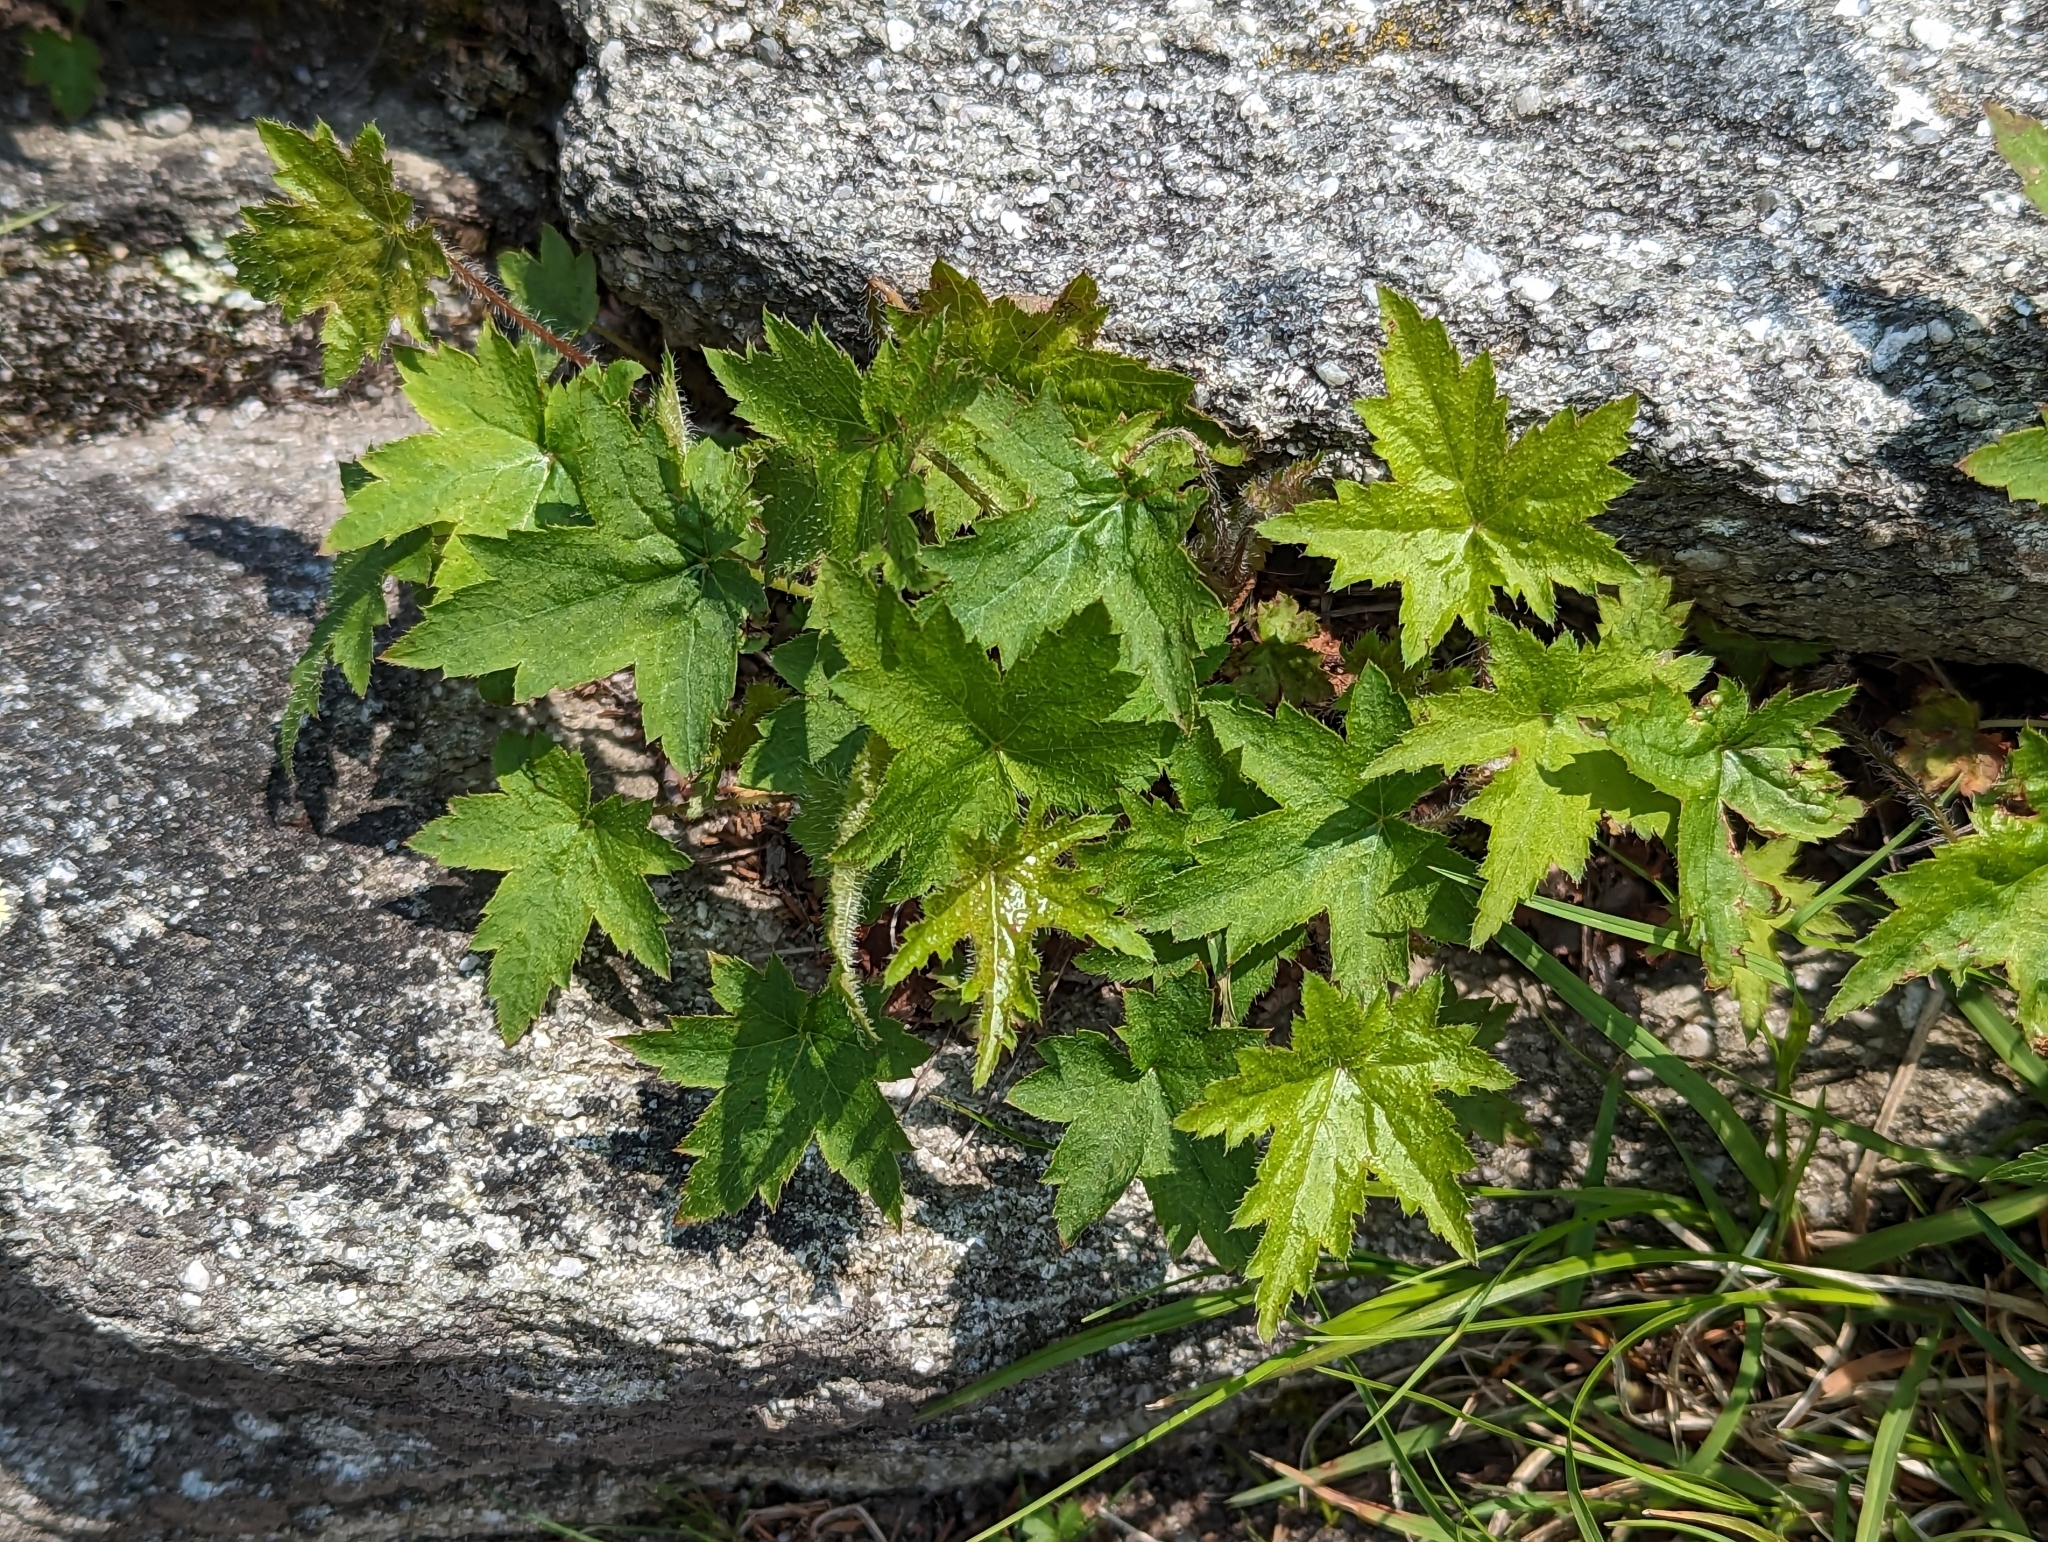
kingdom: Plantae
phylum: Tracheophyta
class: Magnoliopsida
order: Saxifragales
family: Saxifragaceae
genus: Heuchera
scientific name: Heuchera villosa
